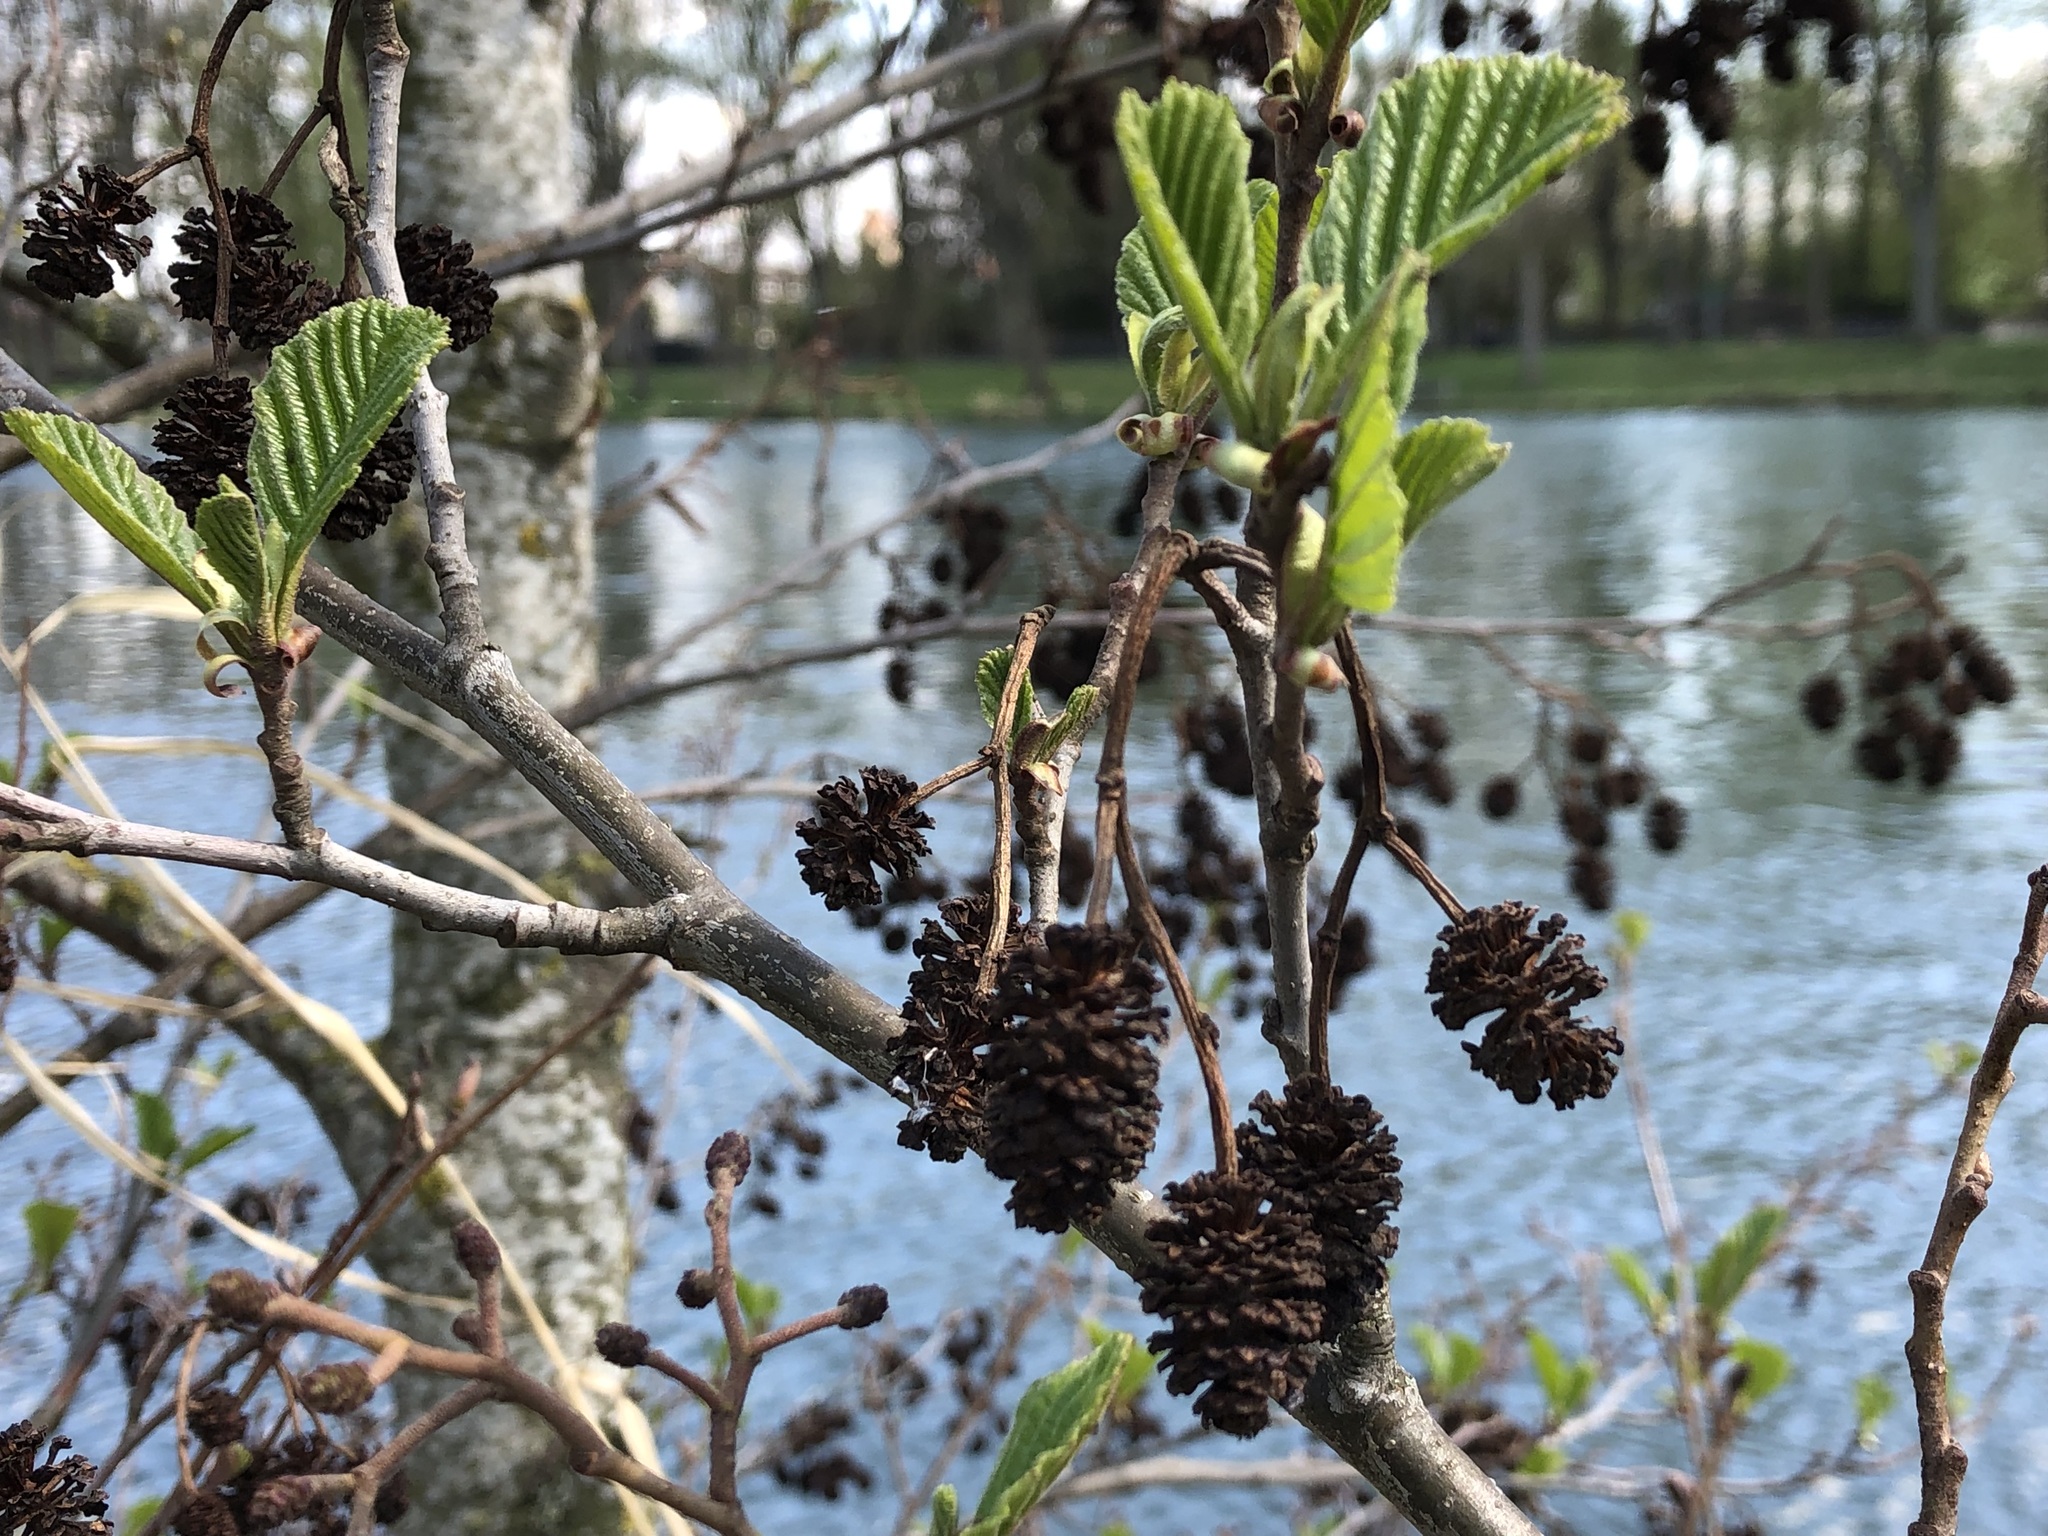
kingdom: Plantae
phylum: Tracheophyta
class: Magnoliopsida
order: Fagales
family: Betulaceae
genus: Alnus
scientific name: Alnus glutinosa
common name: Black alder
